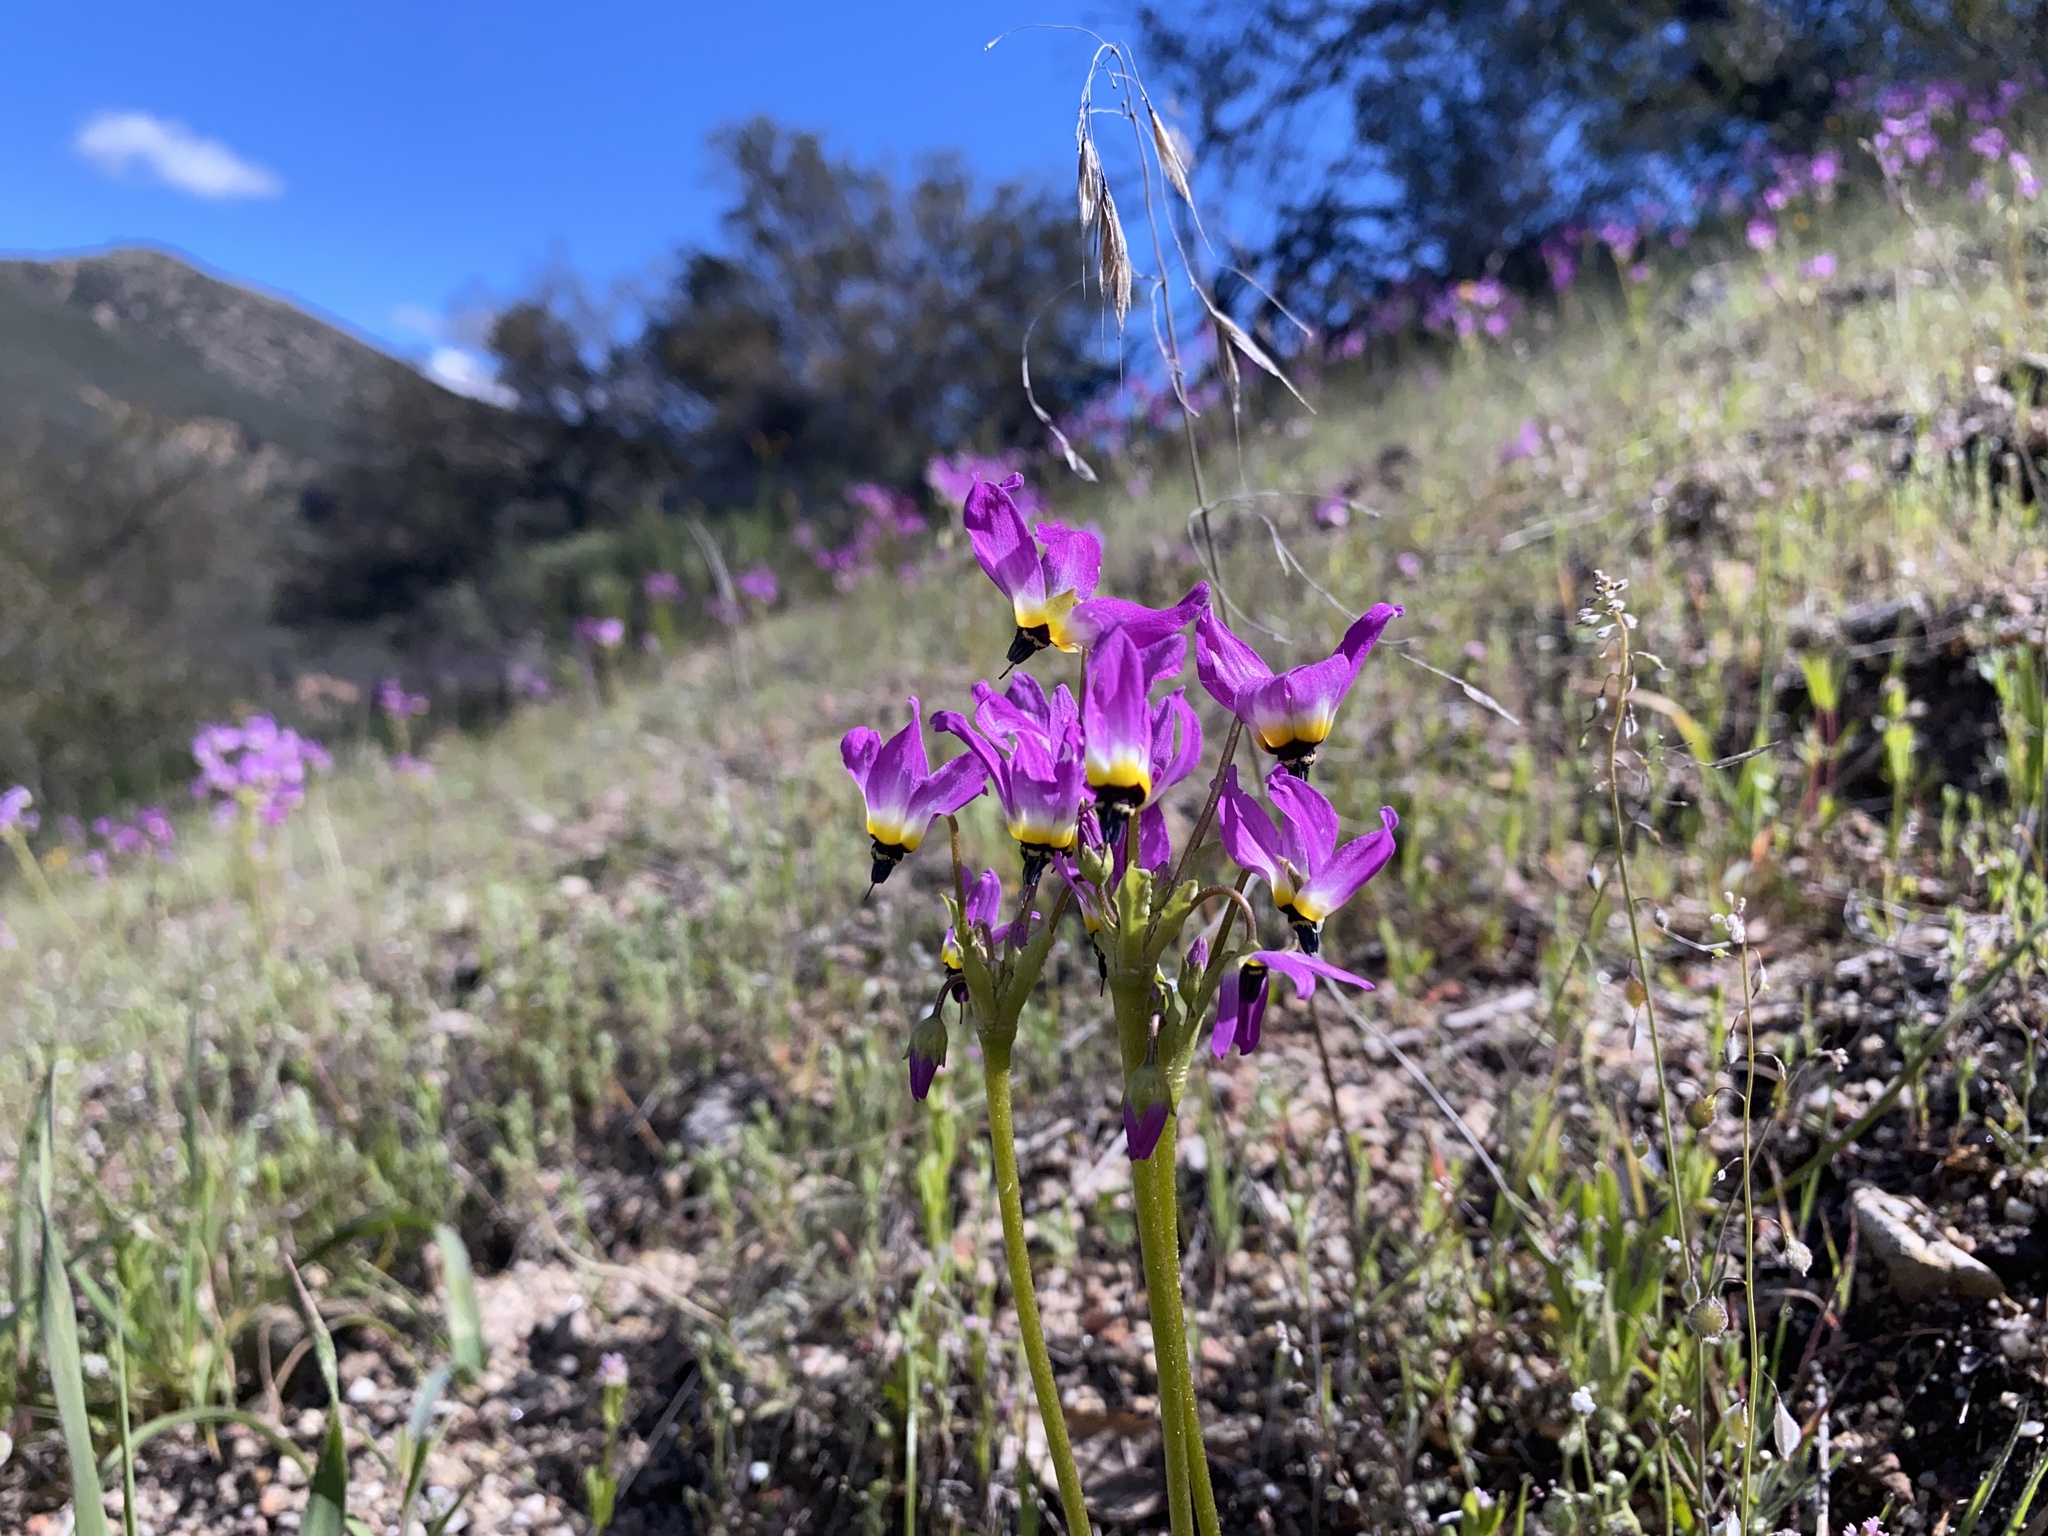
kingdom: Plantae
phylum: Tracheophyta
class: Magnoliopsida
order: Ericales
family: Primulaceae
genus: Dodecatheon
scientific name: Dodecatheon clevelandii
